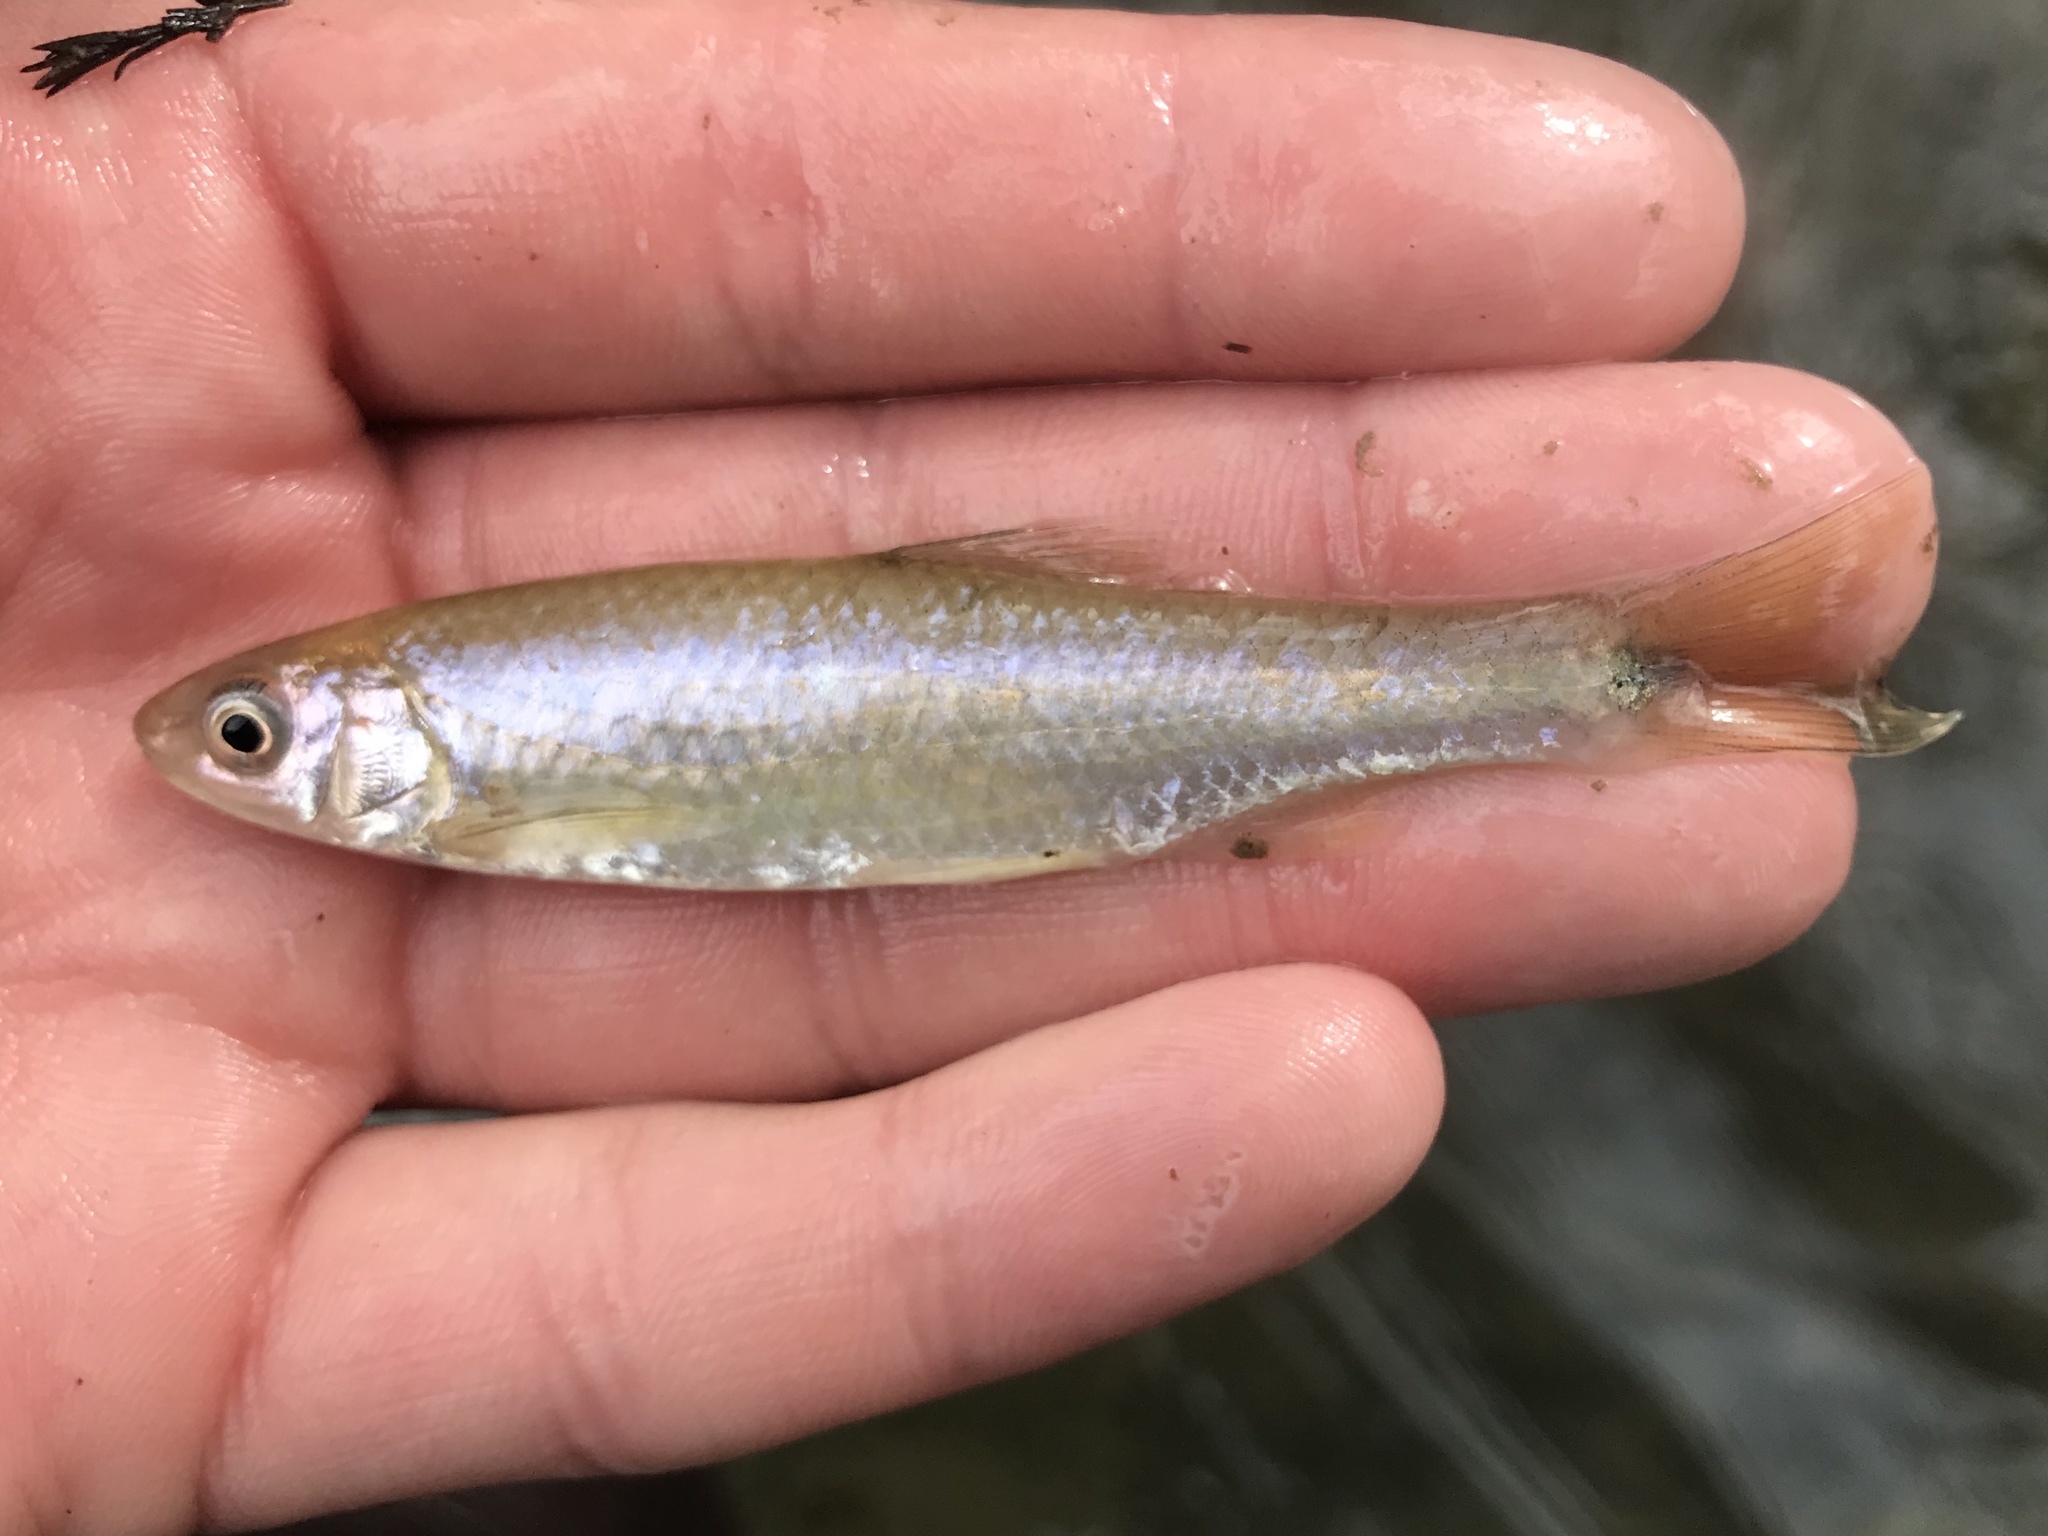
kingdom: Animalia
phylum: Chordata
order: Cypriniformes
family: Cyprinidae
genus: Cyprinella
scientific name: Cyprinella venusta
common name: Blacktail shiner
